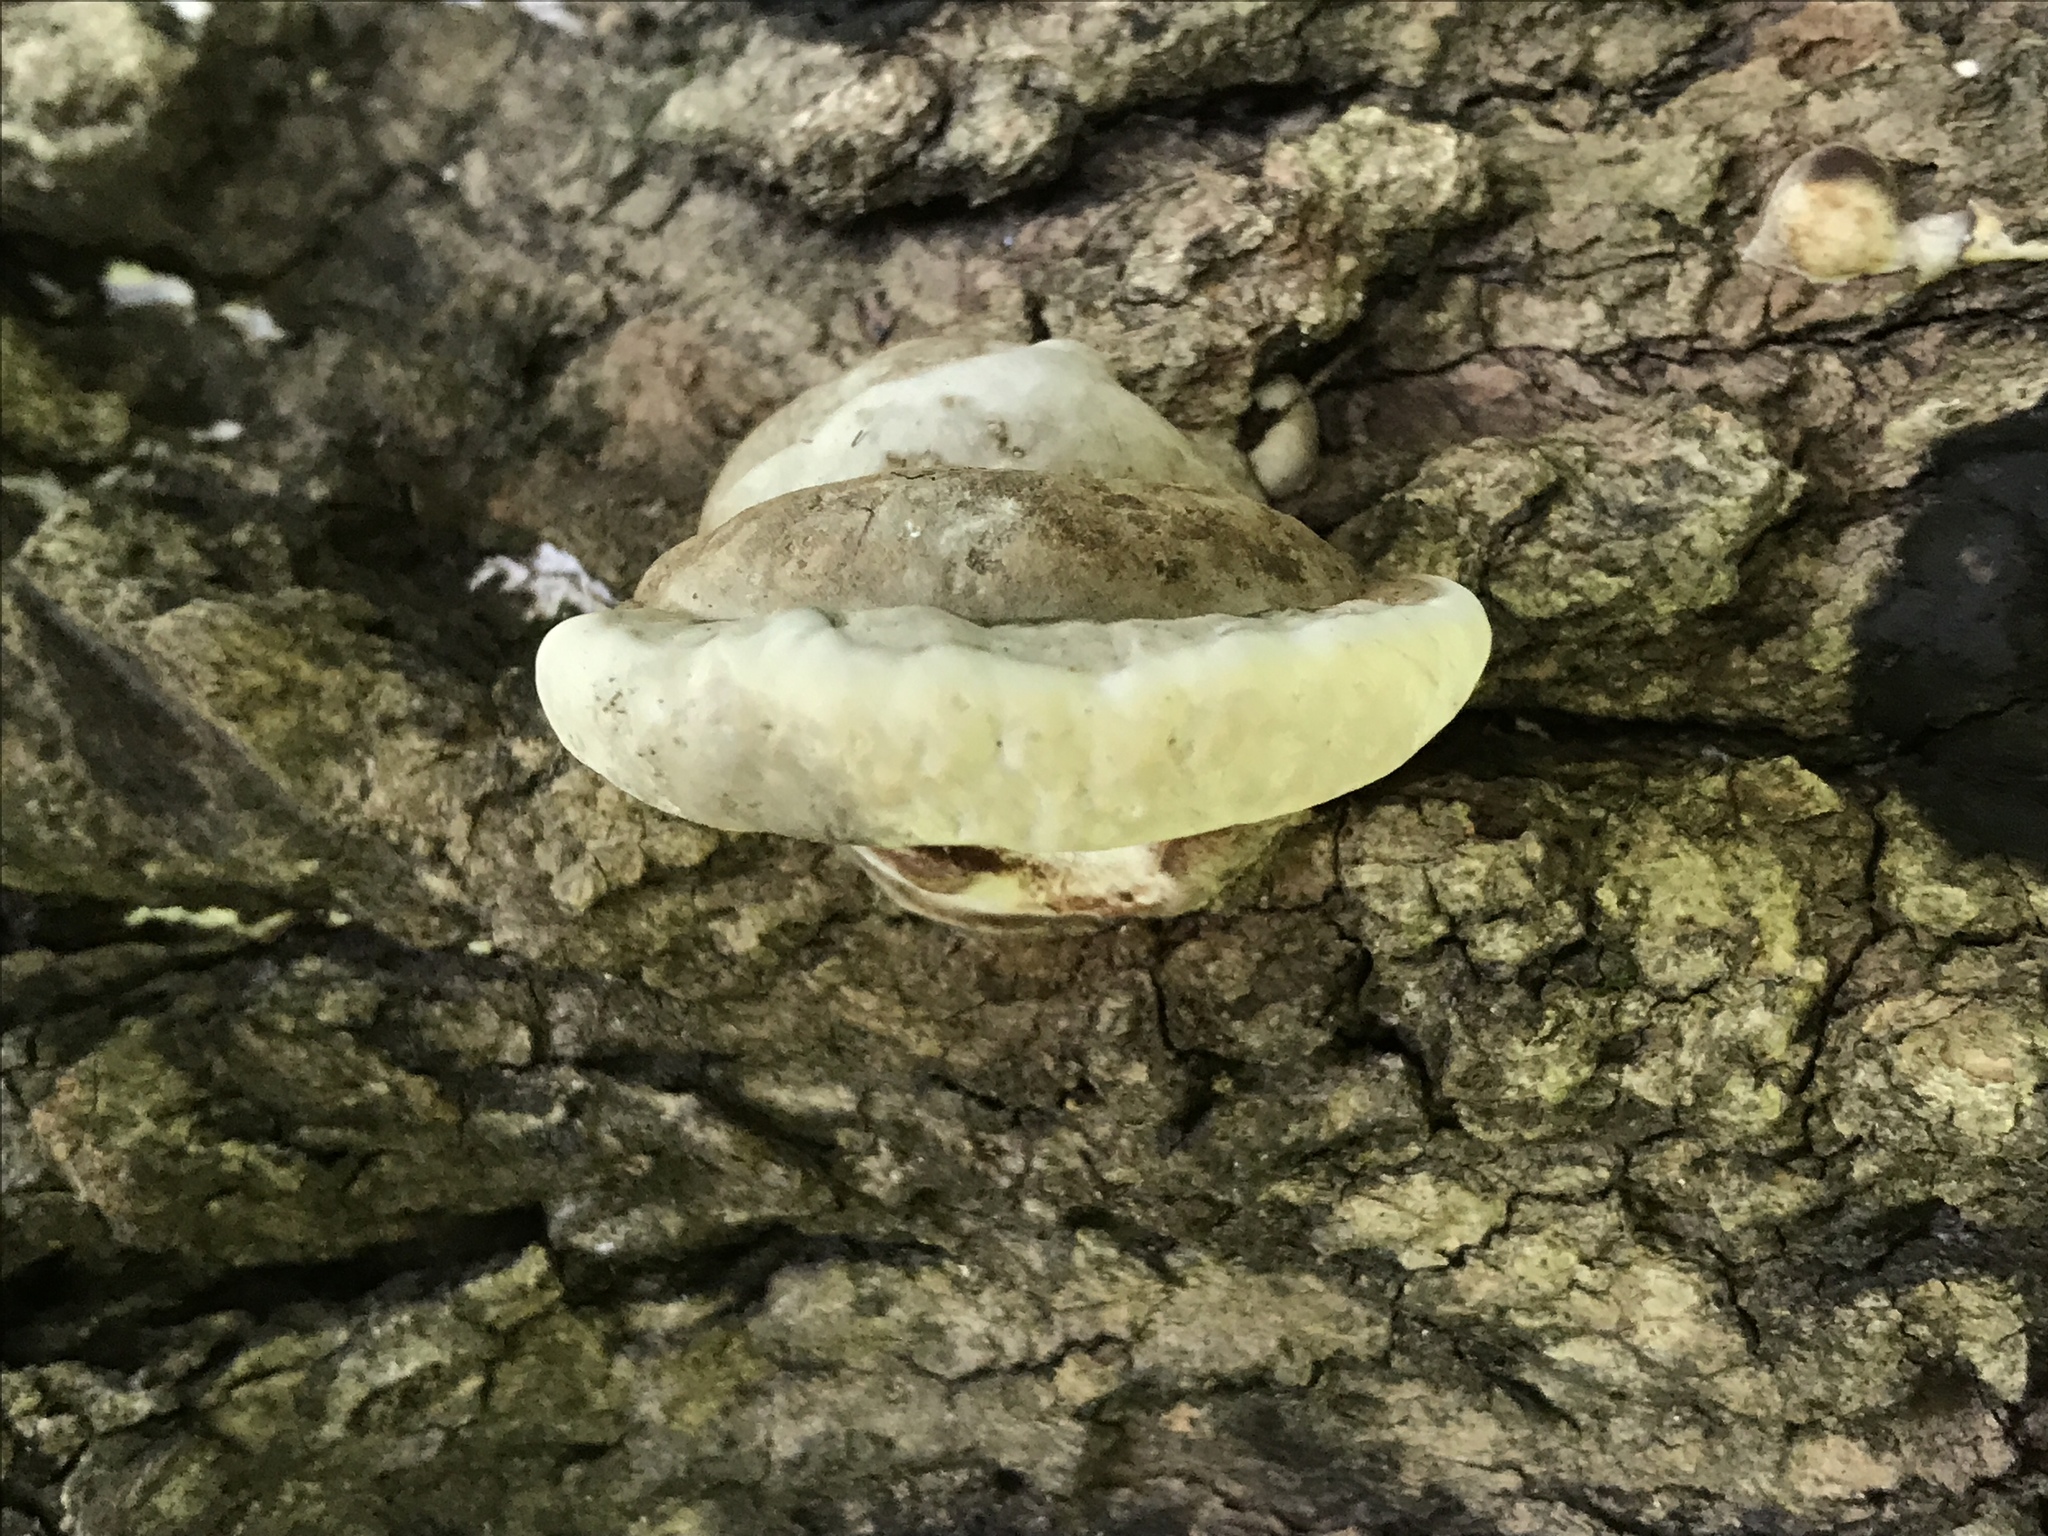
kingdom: Fungi
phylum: Basidiomycota
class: Agaricomycetes
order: Polyporales
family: Polyporaceae
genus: Ganoderma
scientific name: Ganoderma applanatum
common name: Artist's bracket
